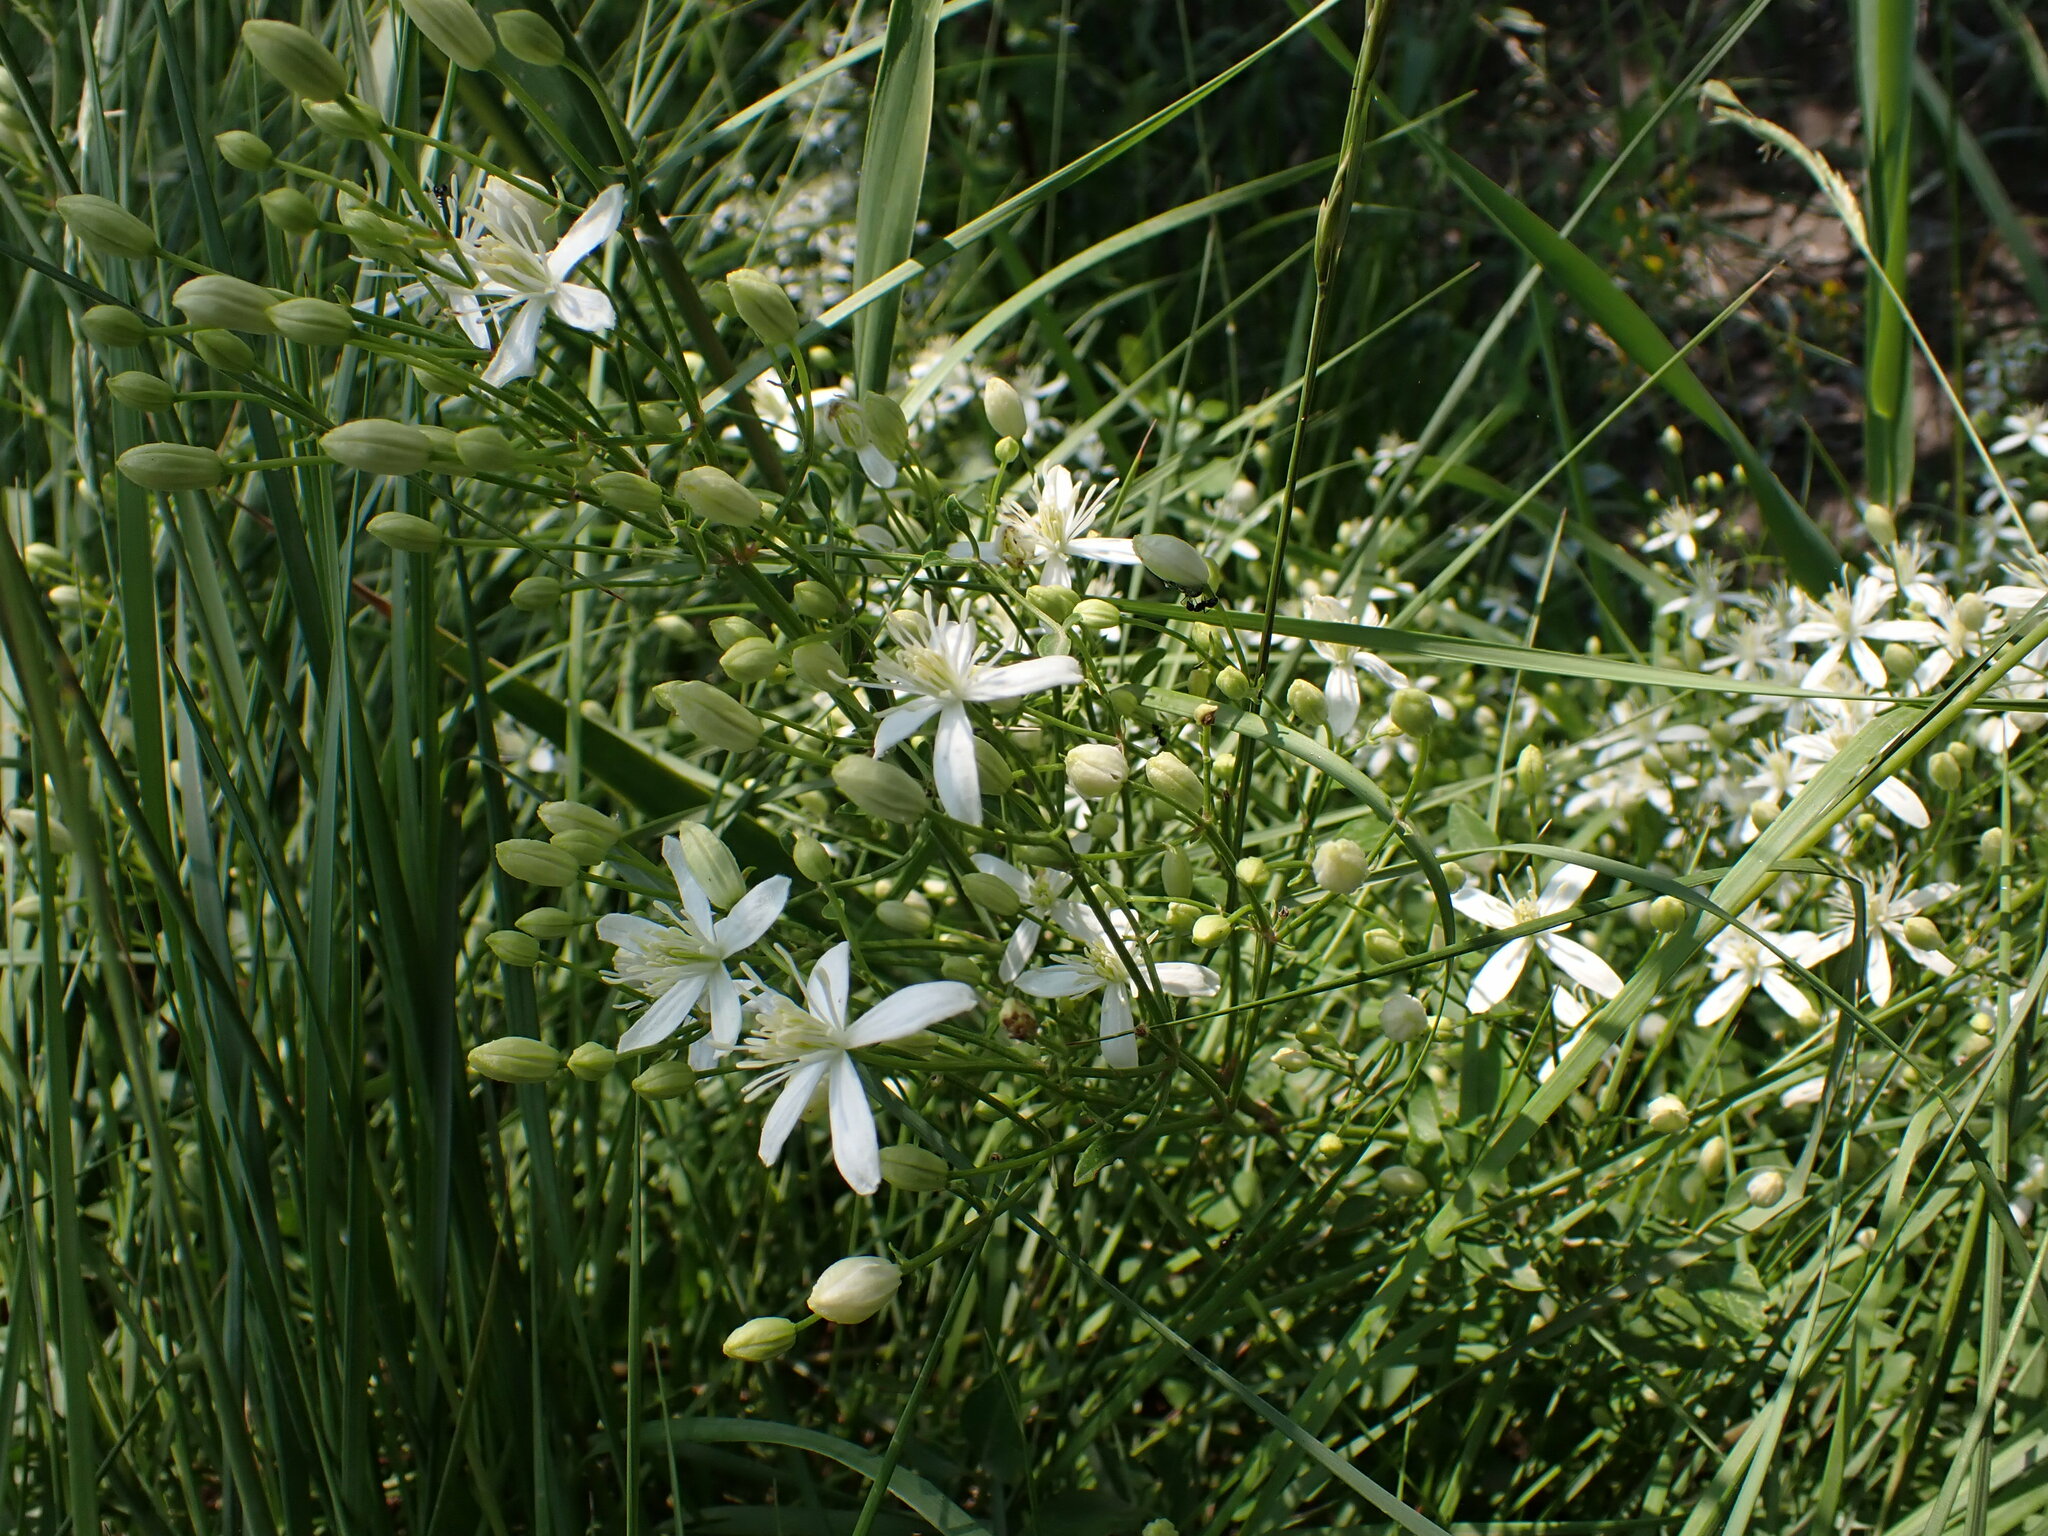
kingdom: Plantae
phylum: Tracheophyta
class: Magnoliopsida
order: Ranunculales
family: Ranunculaceae
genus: Clematis
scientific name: Clematis flammula
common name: Virgin's-bower
